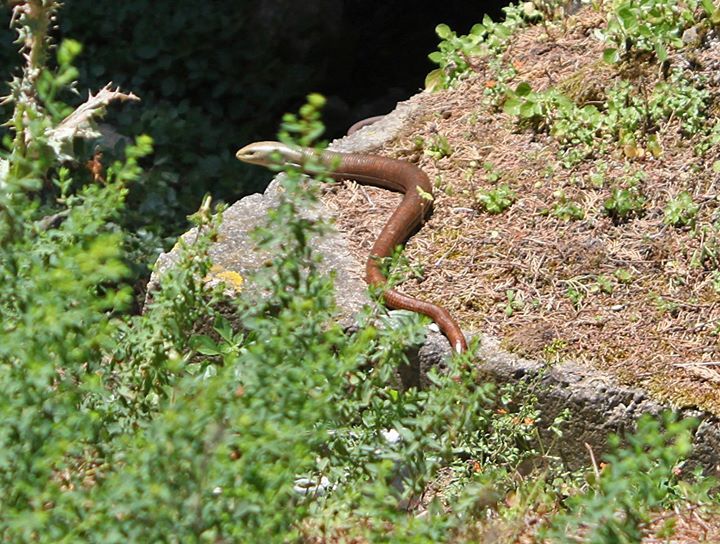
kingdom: Animalia
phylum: Chordata
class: Squamata
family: Anguidae
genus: Pseudopus
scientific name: Pseudopus apodus
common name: European glass lizard
